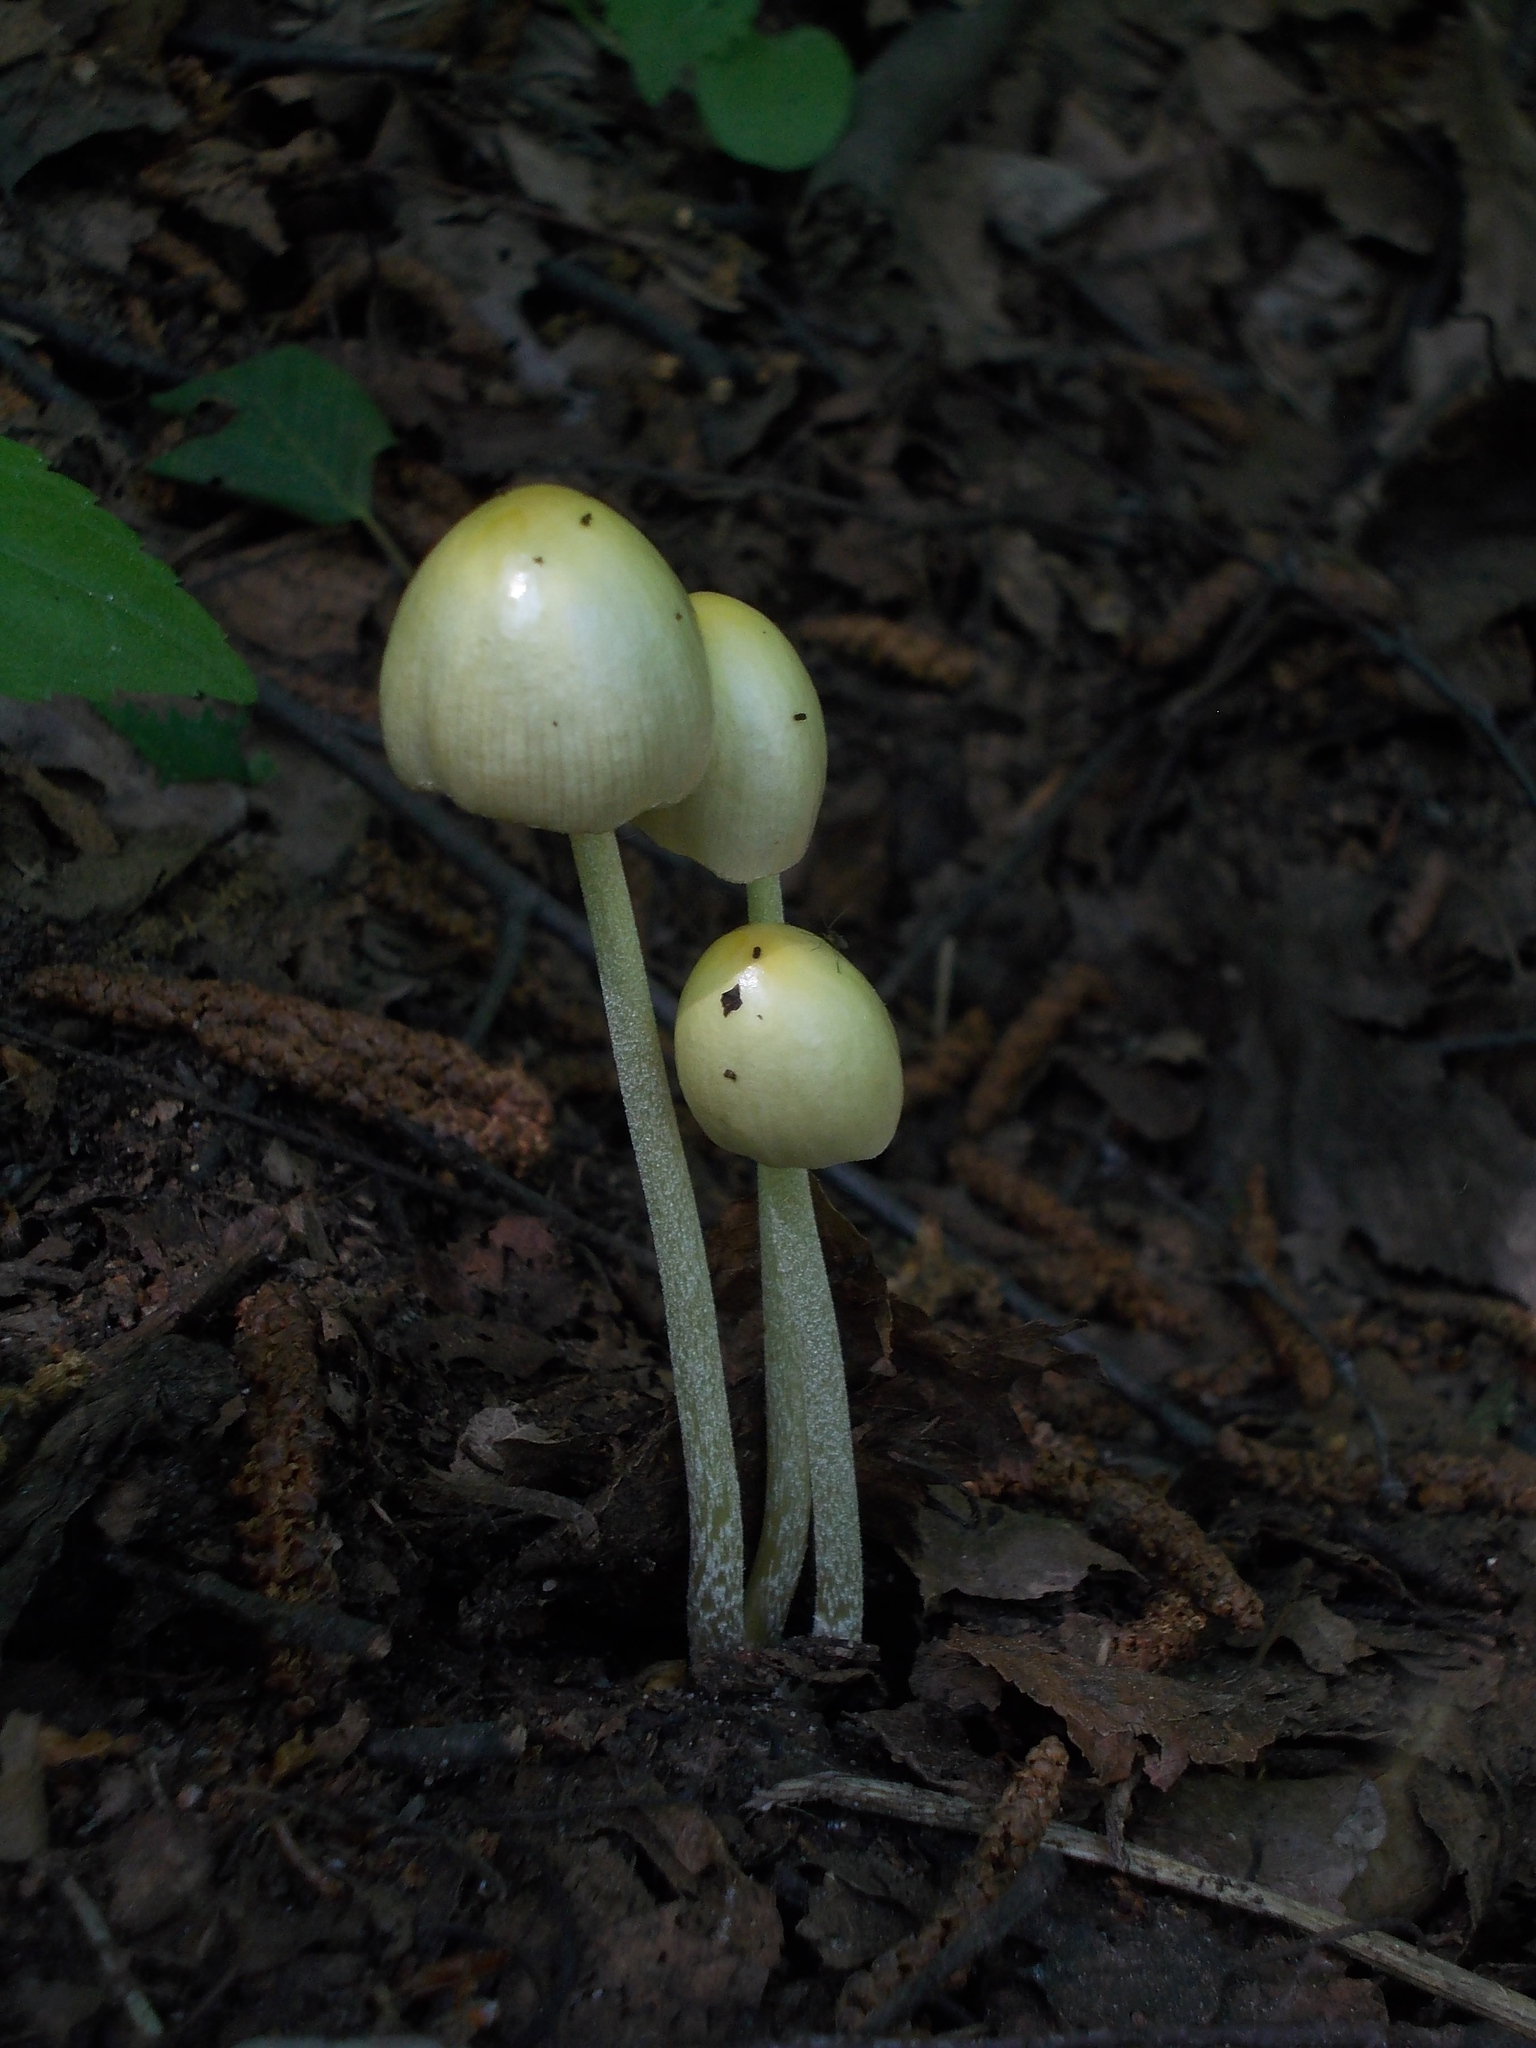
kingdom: Fungi
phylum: Basidiomycota
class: Agaricomycetes
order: Agaricales
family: Bolbitiaceae
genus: Bolbitius
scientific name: Bolbitius titubans
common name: Yellow fieldcap
